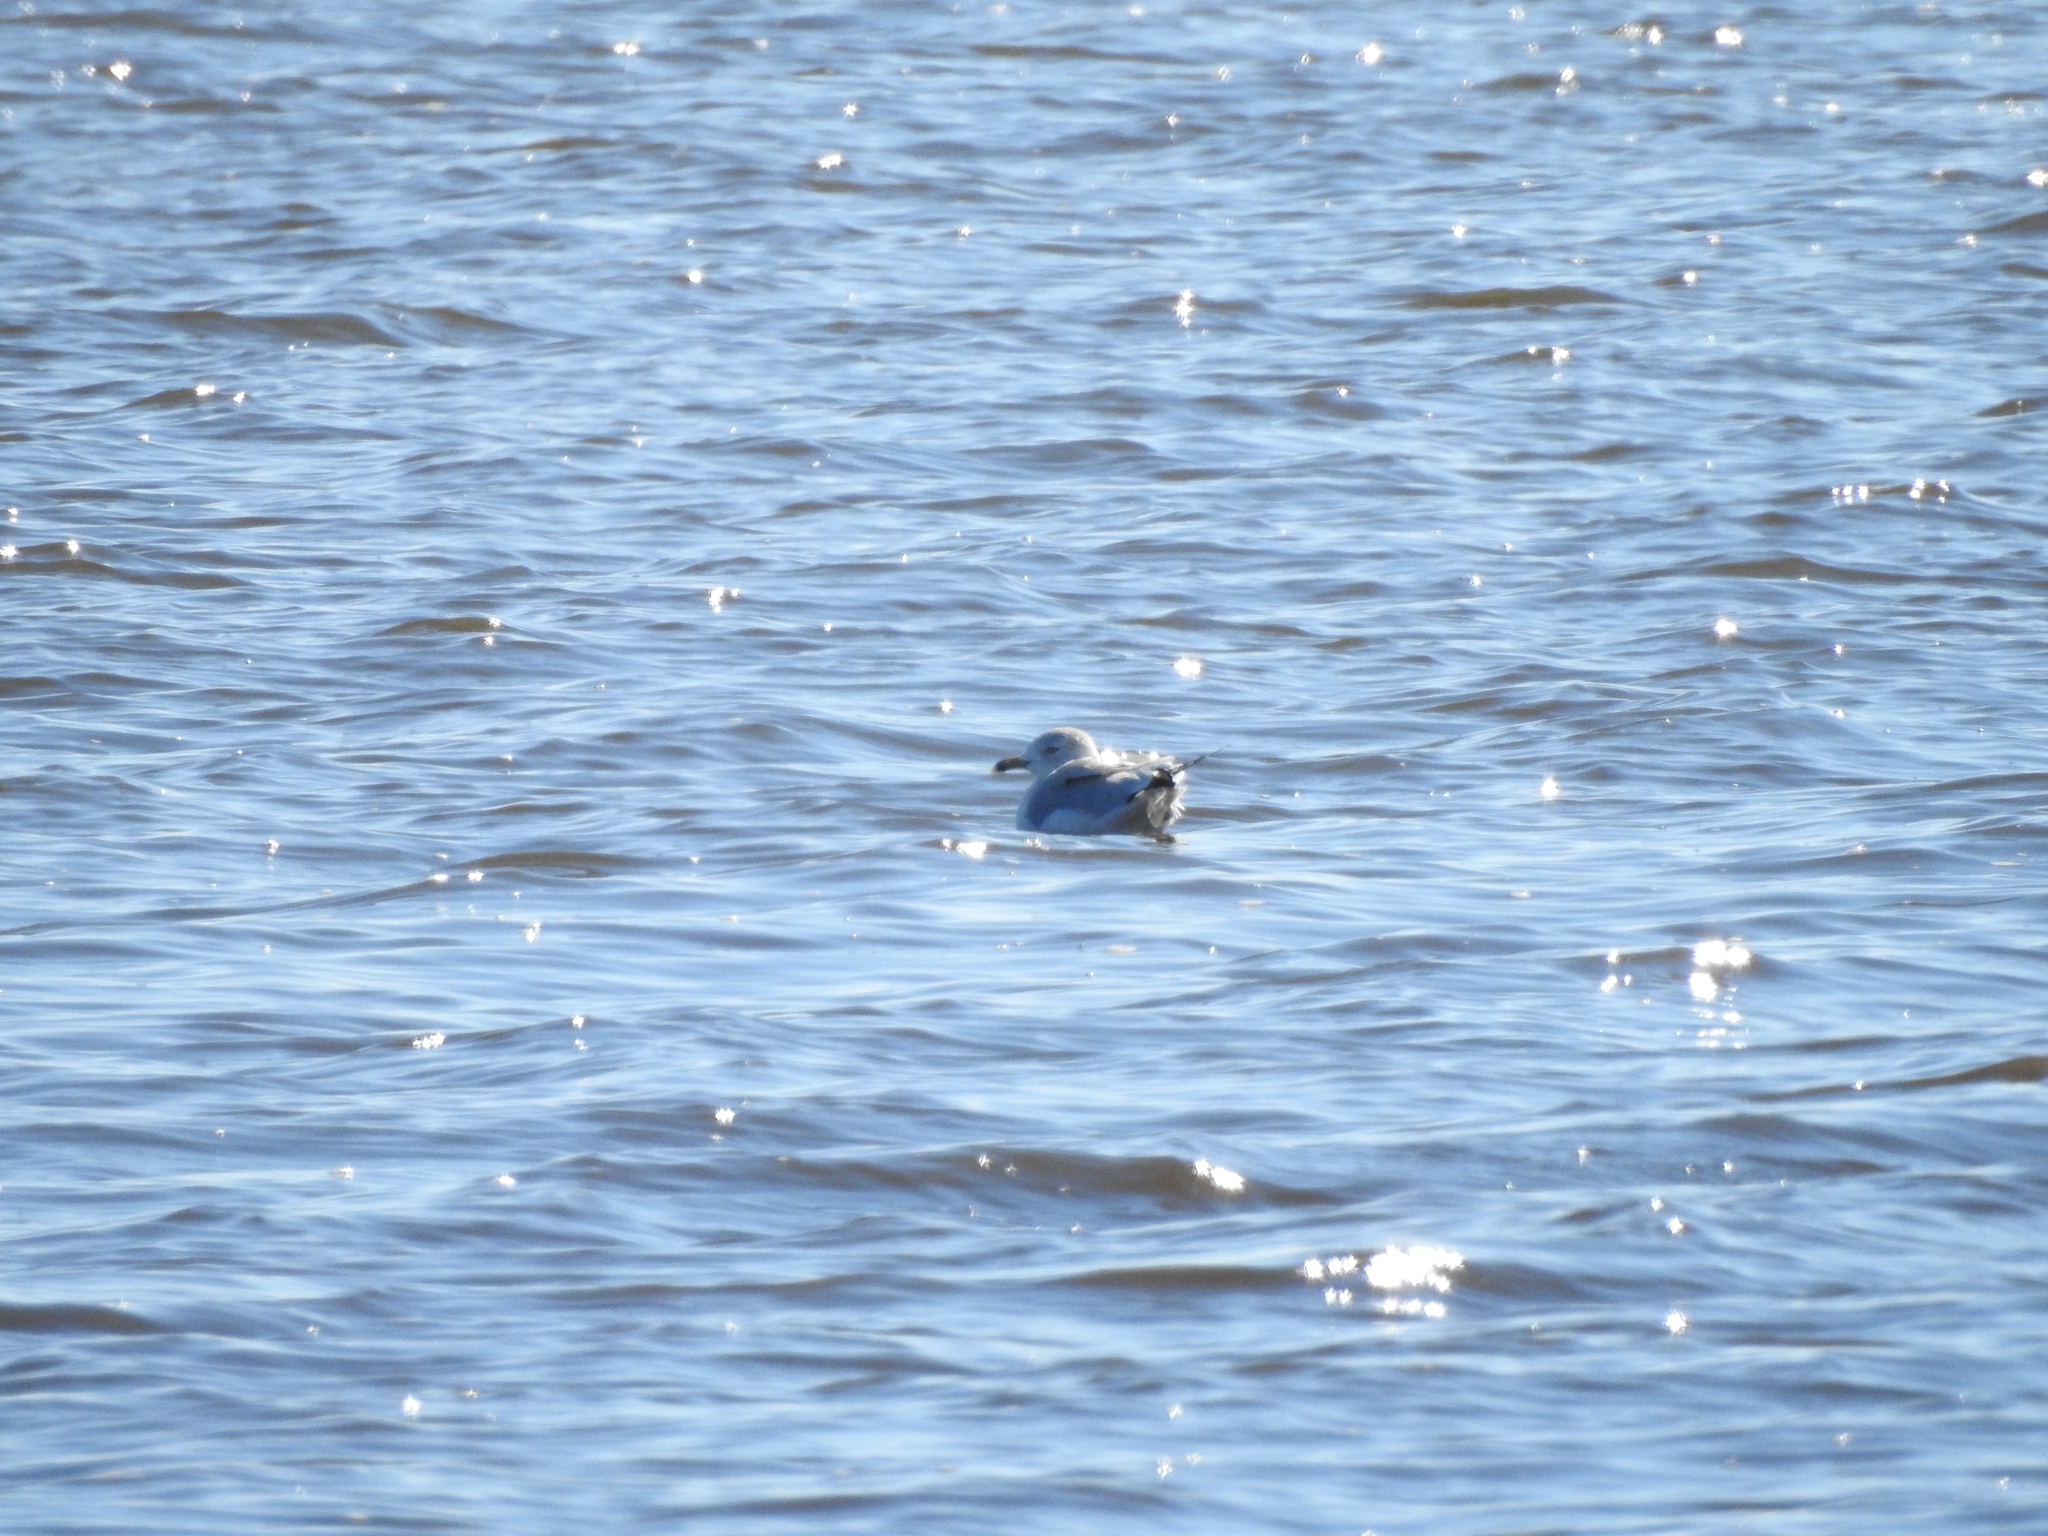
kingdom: Animalia
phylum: Chordata
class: Aves
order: Charadriiformes
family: Laridae
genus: Larus
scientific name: Larus delawarensis
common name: Ring-billed gull
